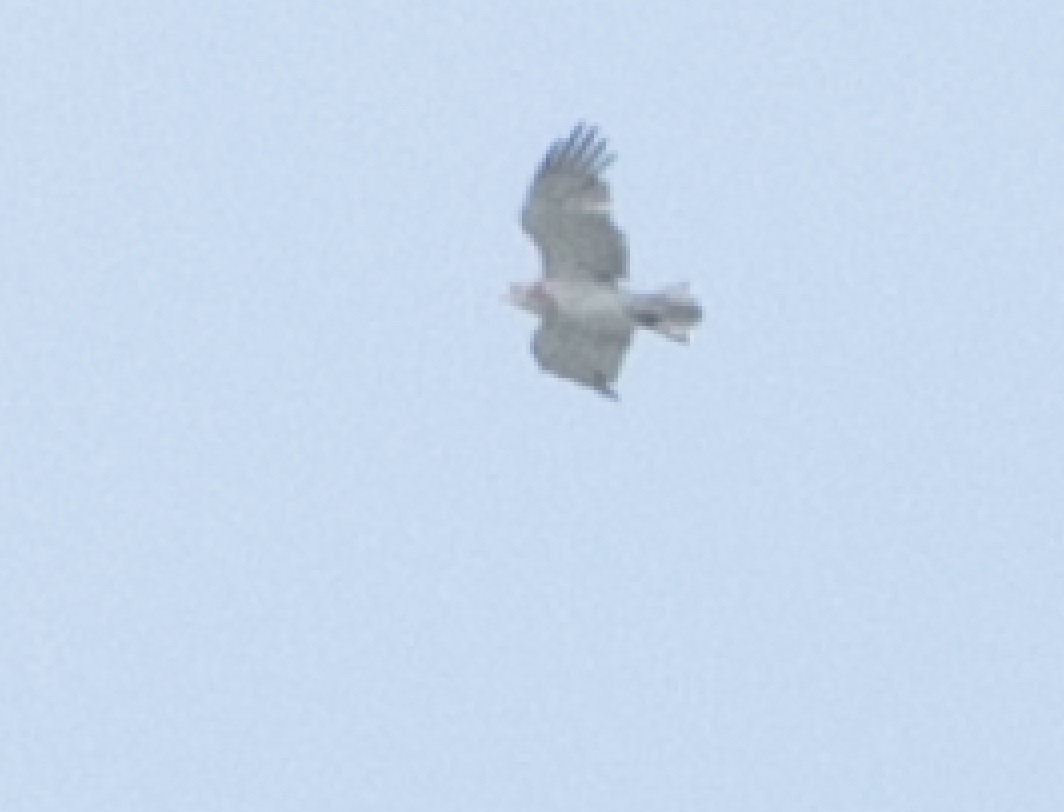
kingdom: Animalia
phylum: Chordata
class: Aves
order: Accipitriformes
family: Accipitridae
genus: Circaetus
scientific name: Circaetus gallicus
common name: Short-toed snake eagle
